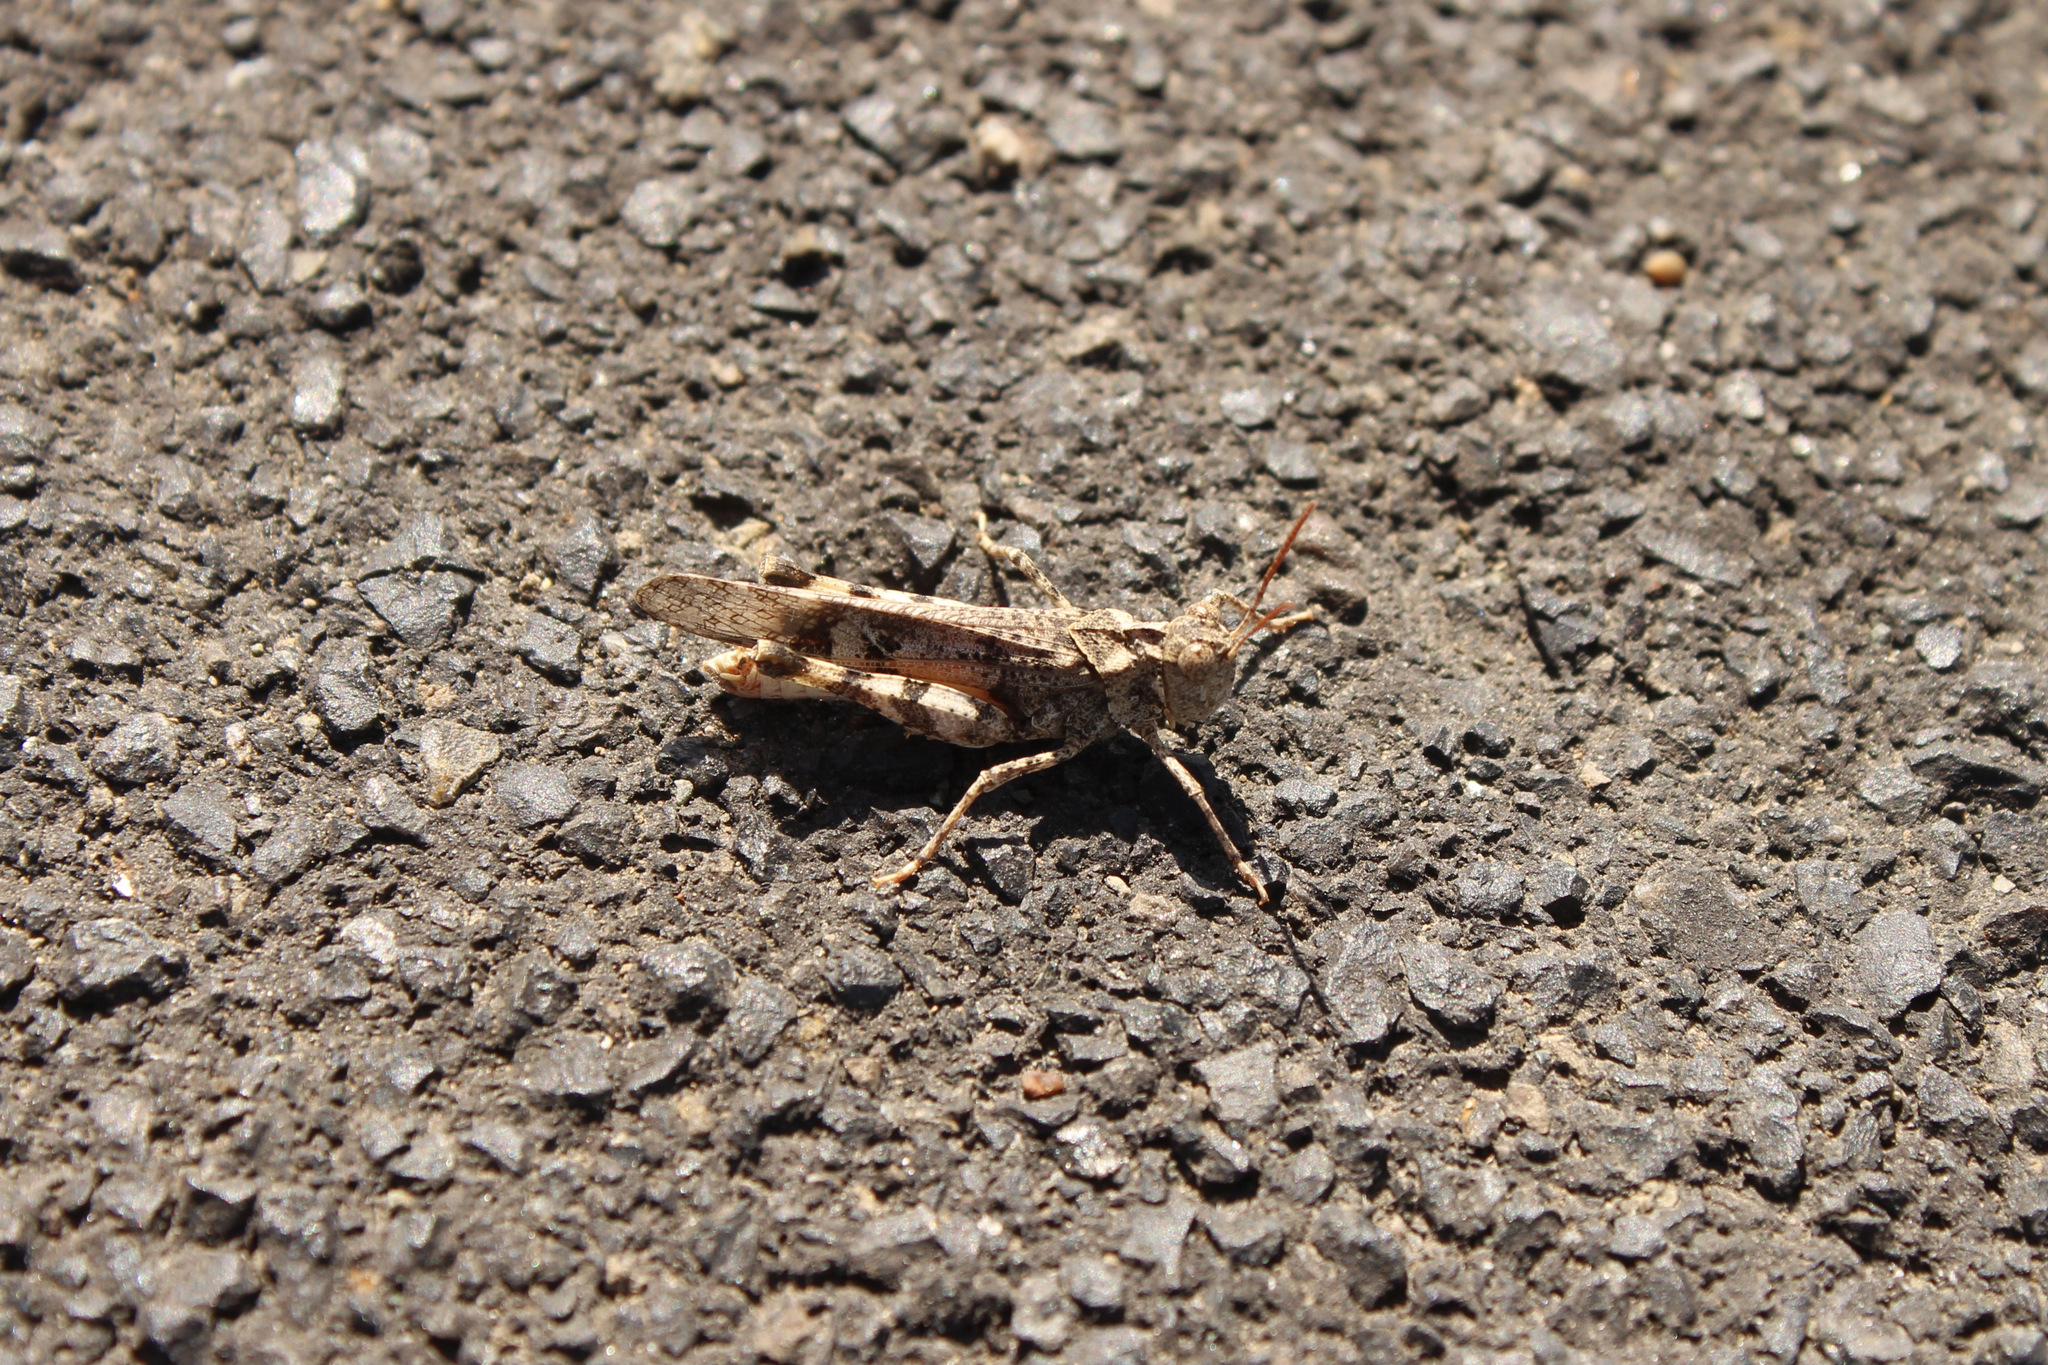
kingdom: Animalia
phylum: Arthropoda
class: Insecta
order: Orthoptera
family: Acrididae
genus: Dissosteira
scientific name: Dissosteira pictipennis
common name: California rose-winged grasshopper
